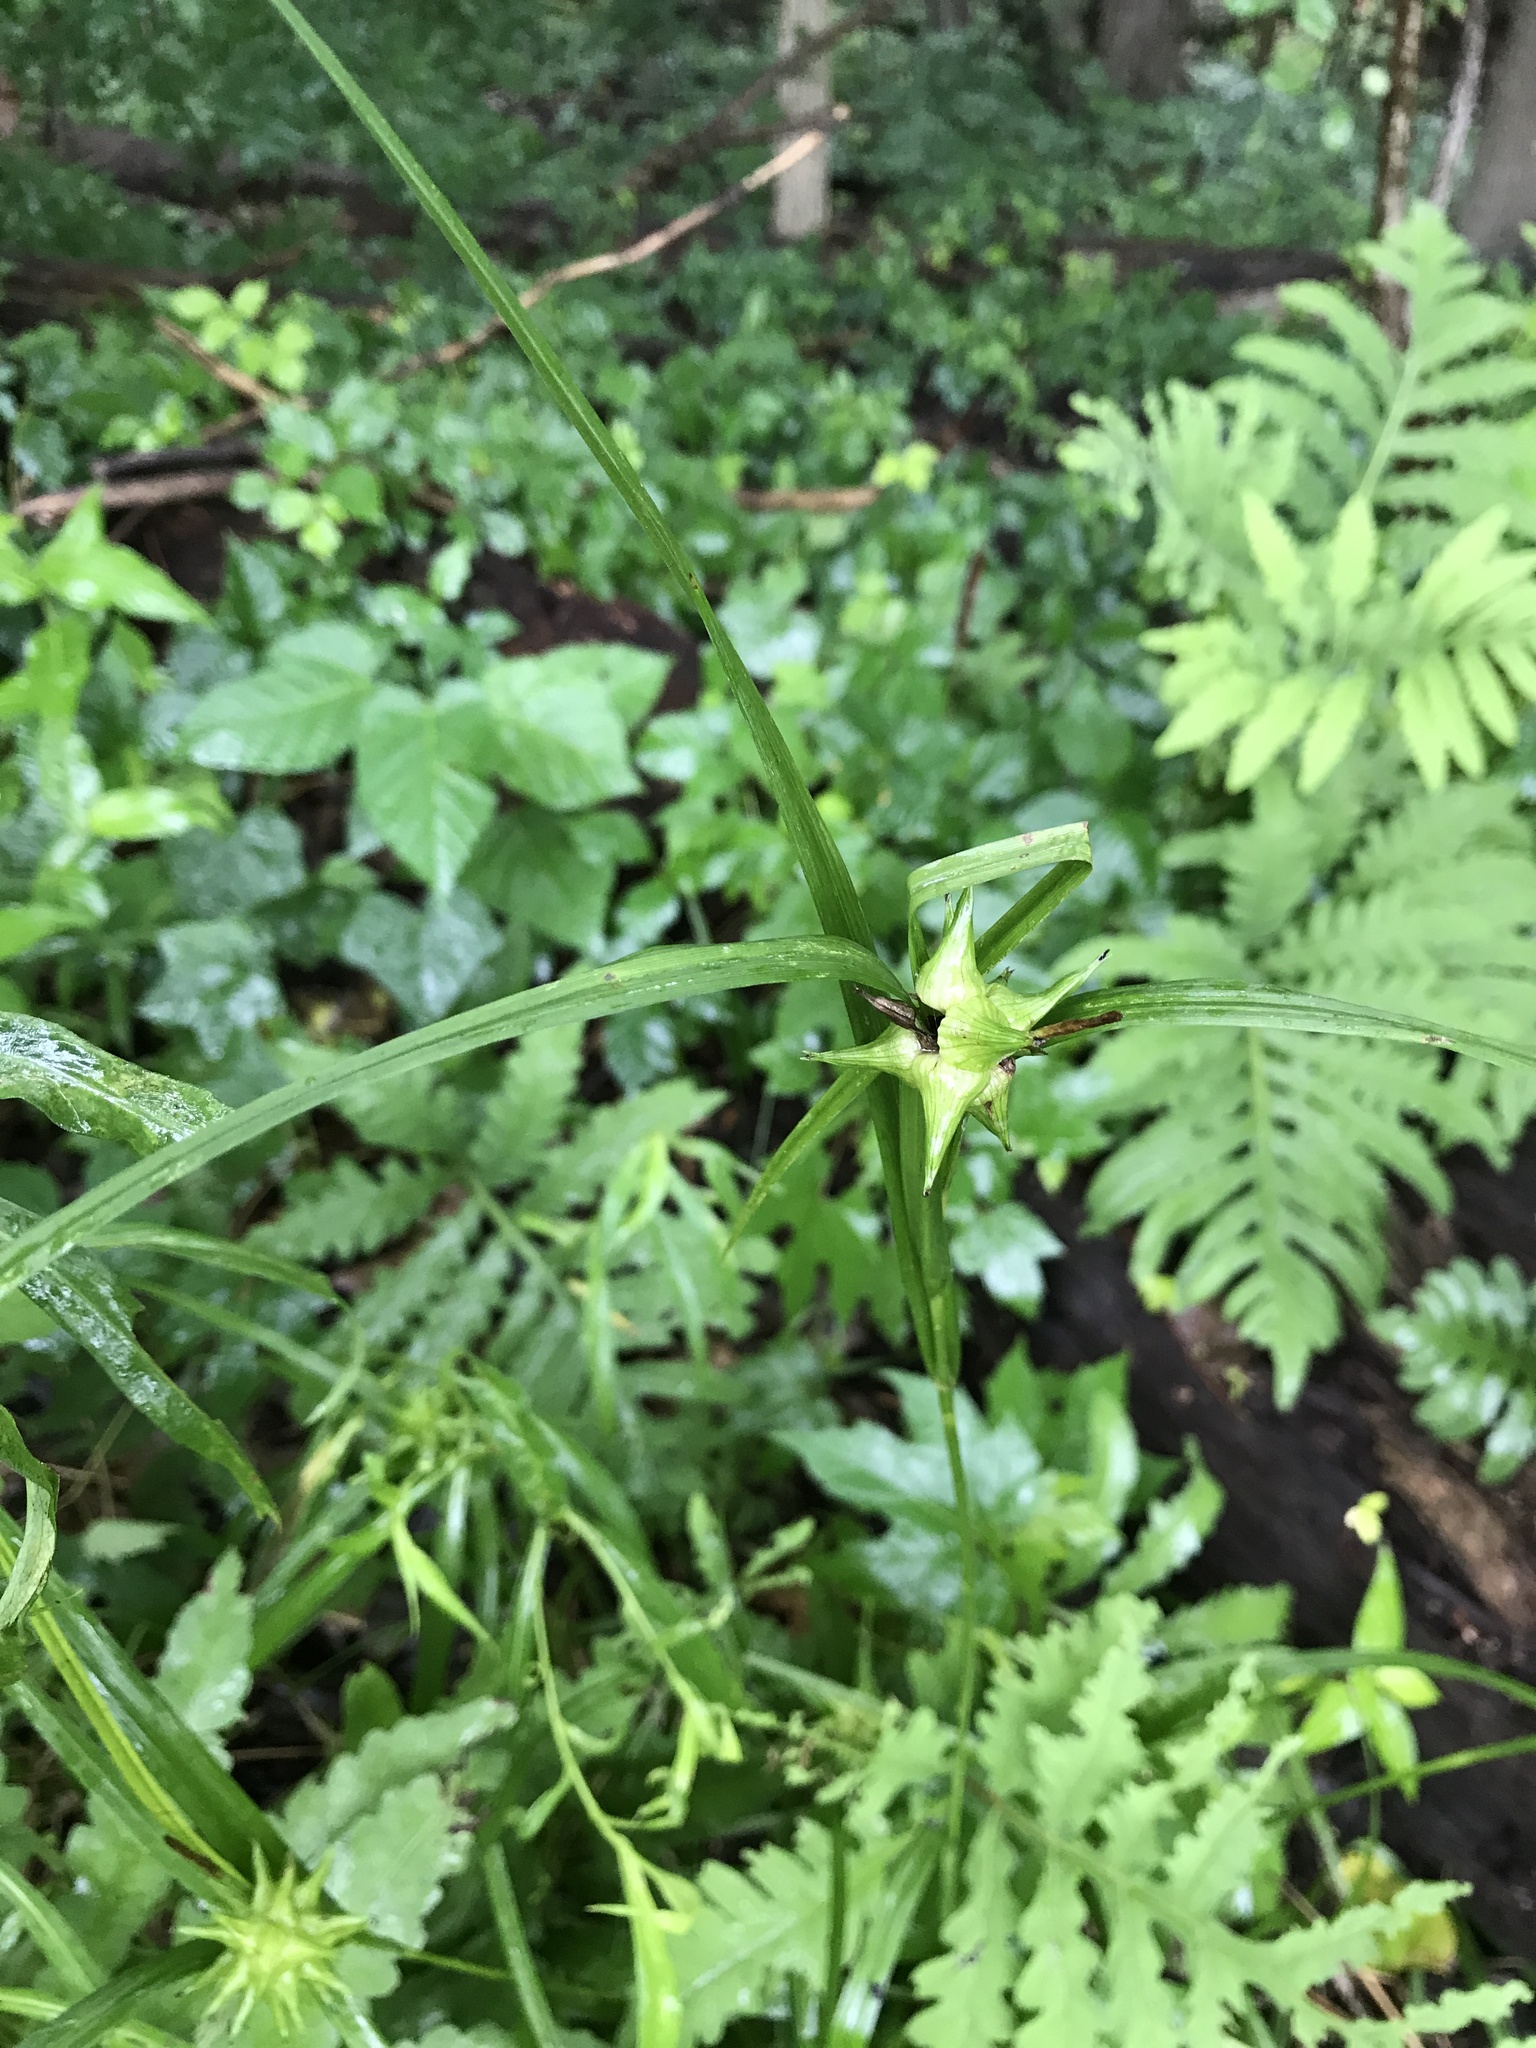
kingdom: Plantae
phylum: Tracheophyta
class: Liliopsida
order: Poales
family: Cyperaceae
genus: Carex
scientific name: Carex grayi
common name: Asa gray's sedge
